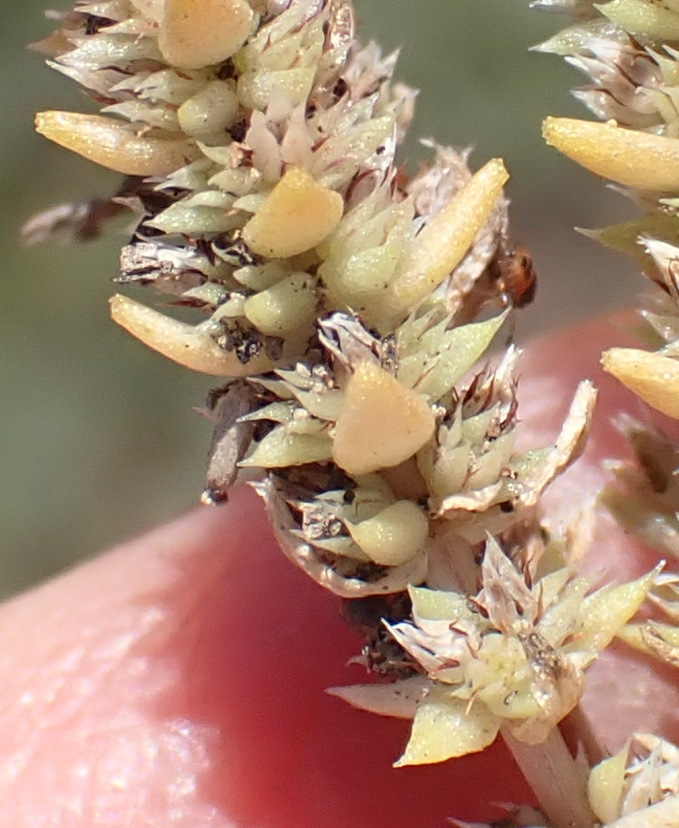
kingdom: Plantae
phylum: Tracheophyta
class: Magnoliopsida
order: Saxifragales
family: Crassulaceae
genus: Crassula
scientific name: Crassula lanceolata
